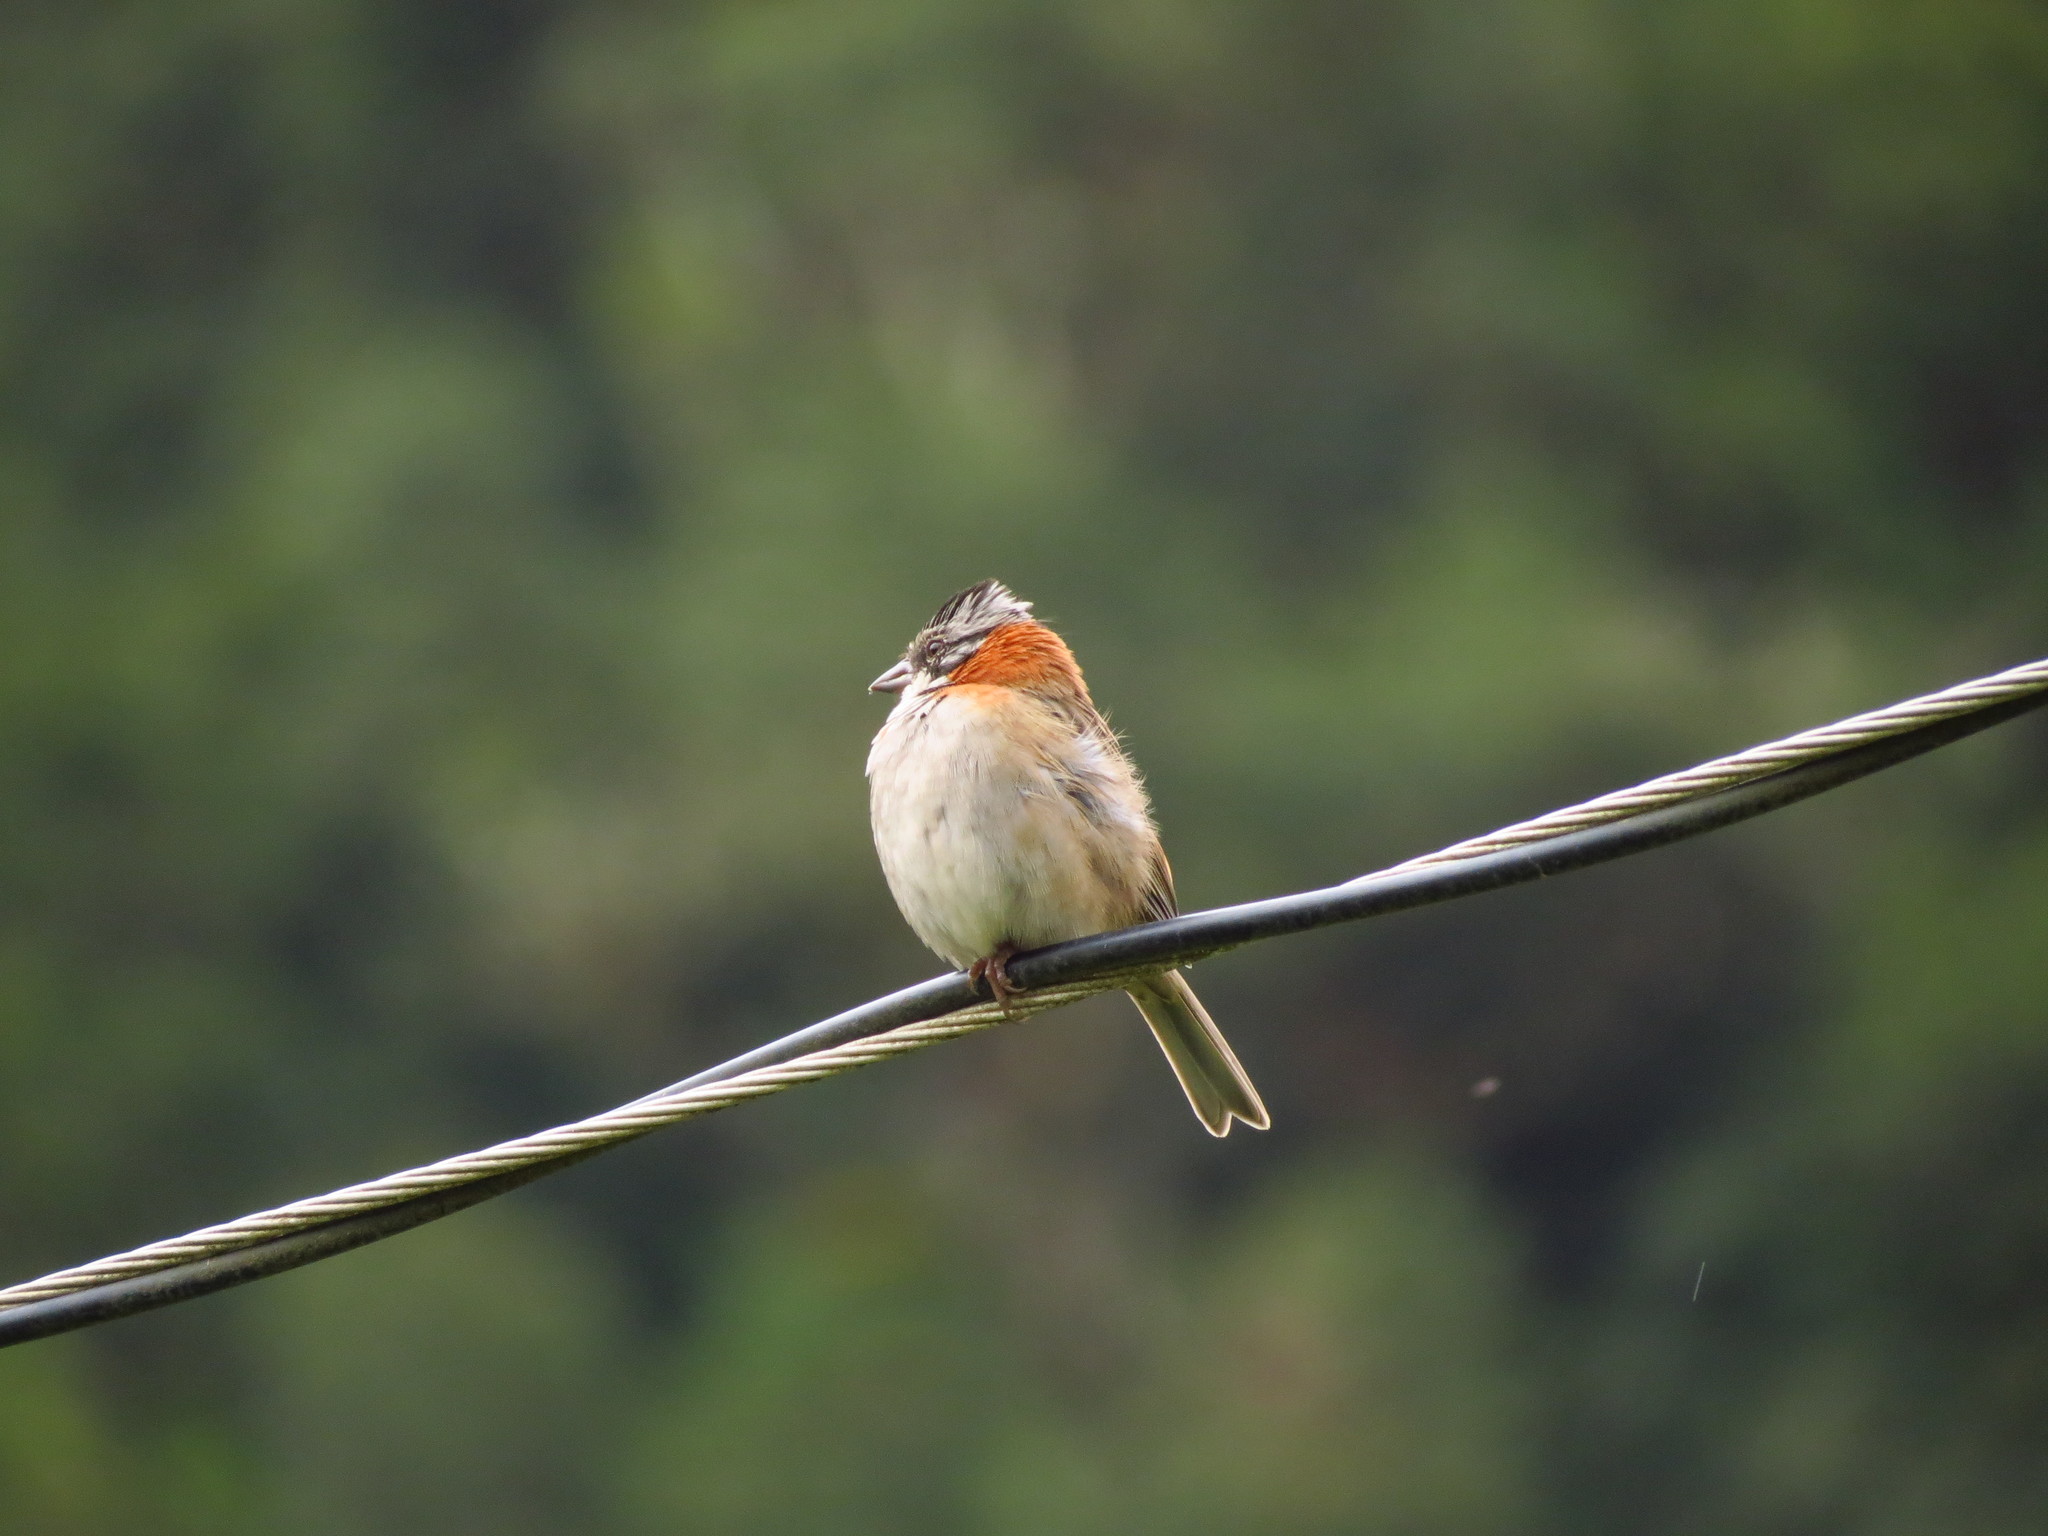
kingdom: Animalia
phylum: Chordata
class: Aves
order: Passeriformes
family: Passerellidae
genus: Zonotrichia
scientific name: Zonotrichia capensis
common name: Rufous-collared sparrow
